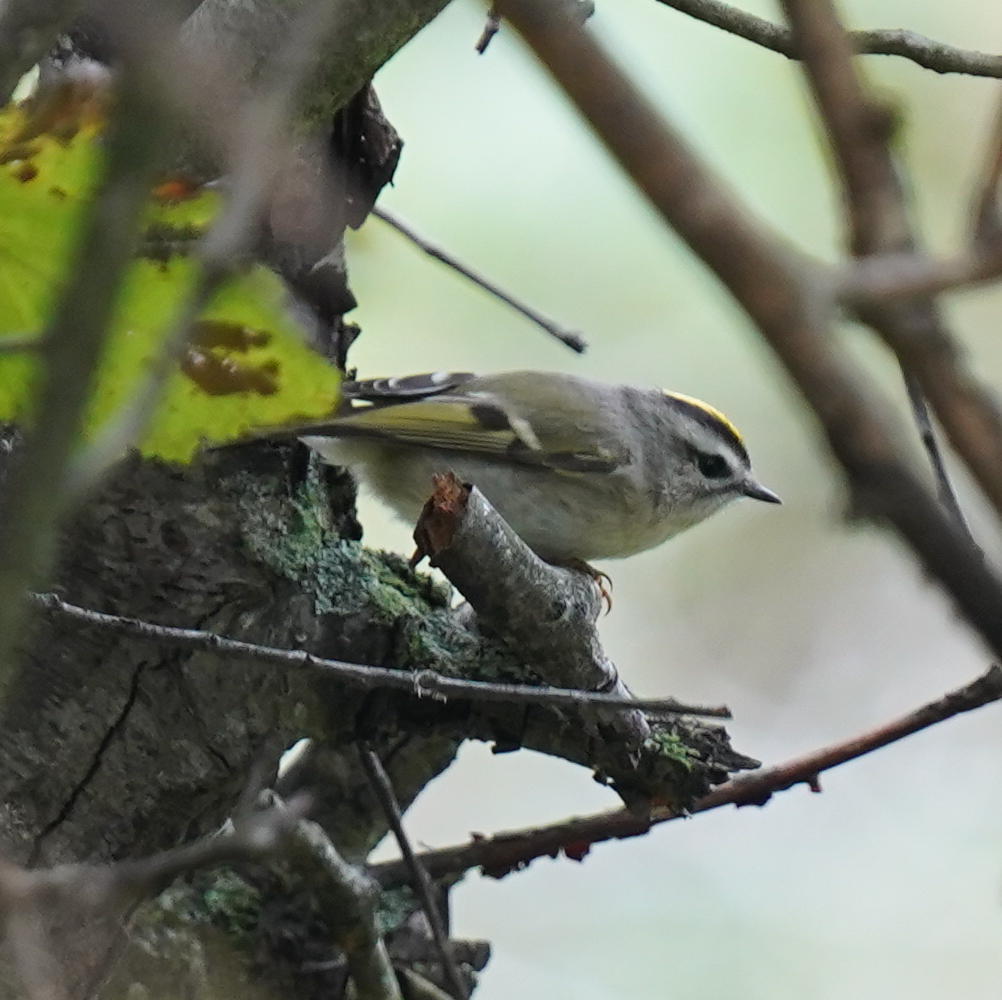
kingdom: Animalia
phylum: Chordata
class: Aves
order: Passeriformes
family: Regulidae
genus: Regulus
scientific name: Regulus satrapa
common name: Golden-crowned kinglet
